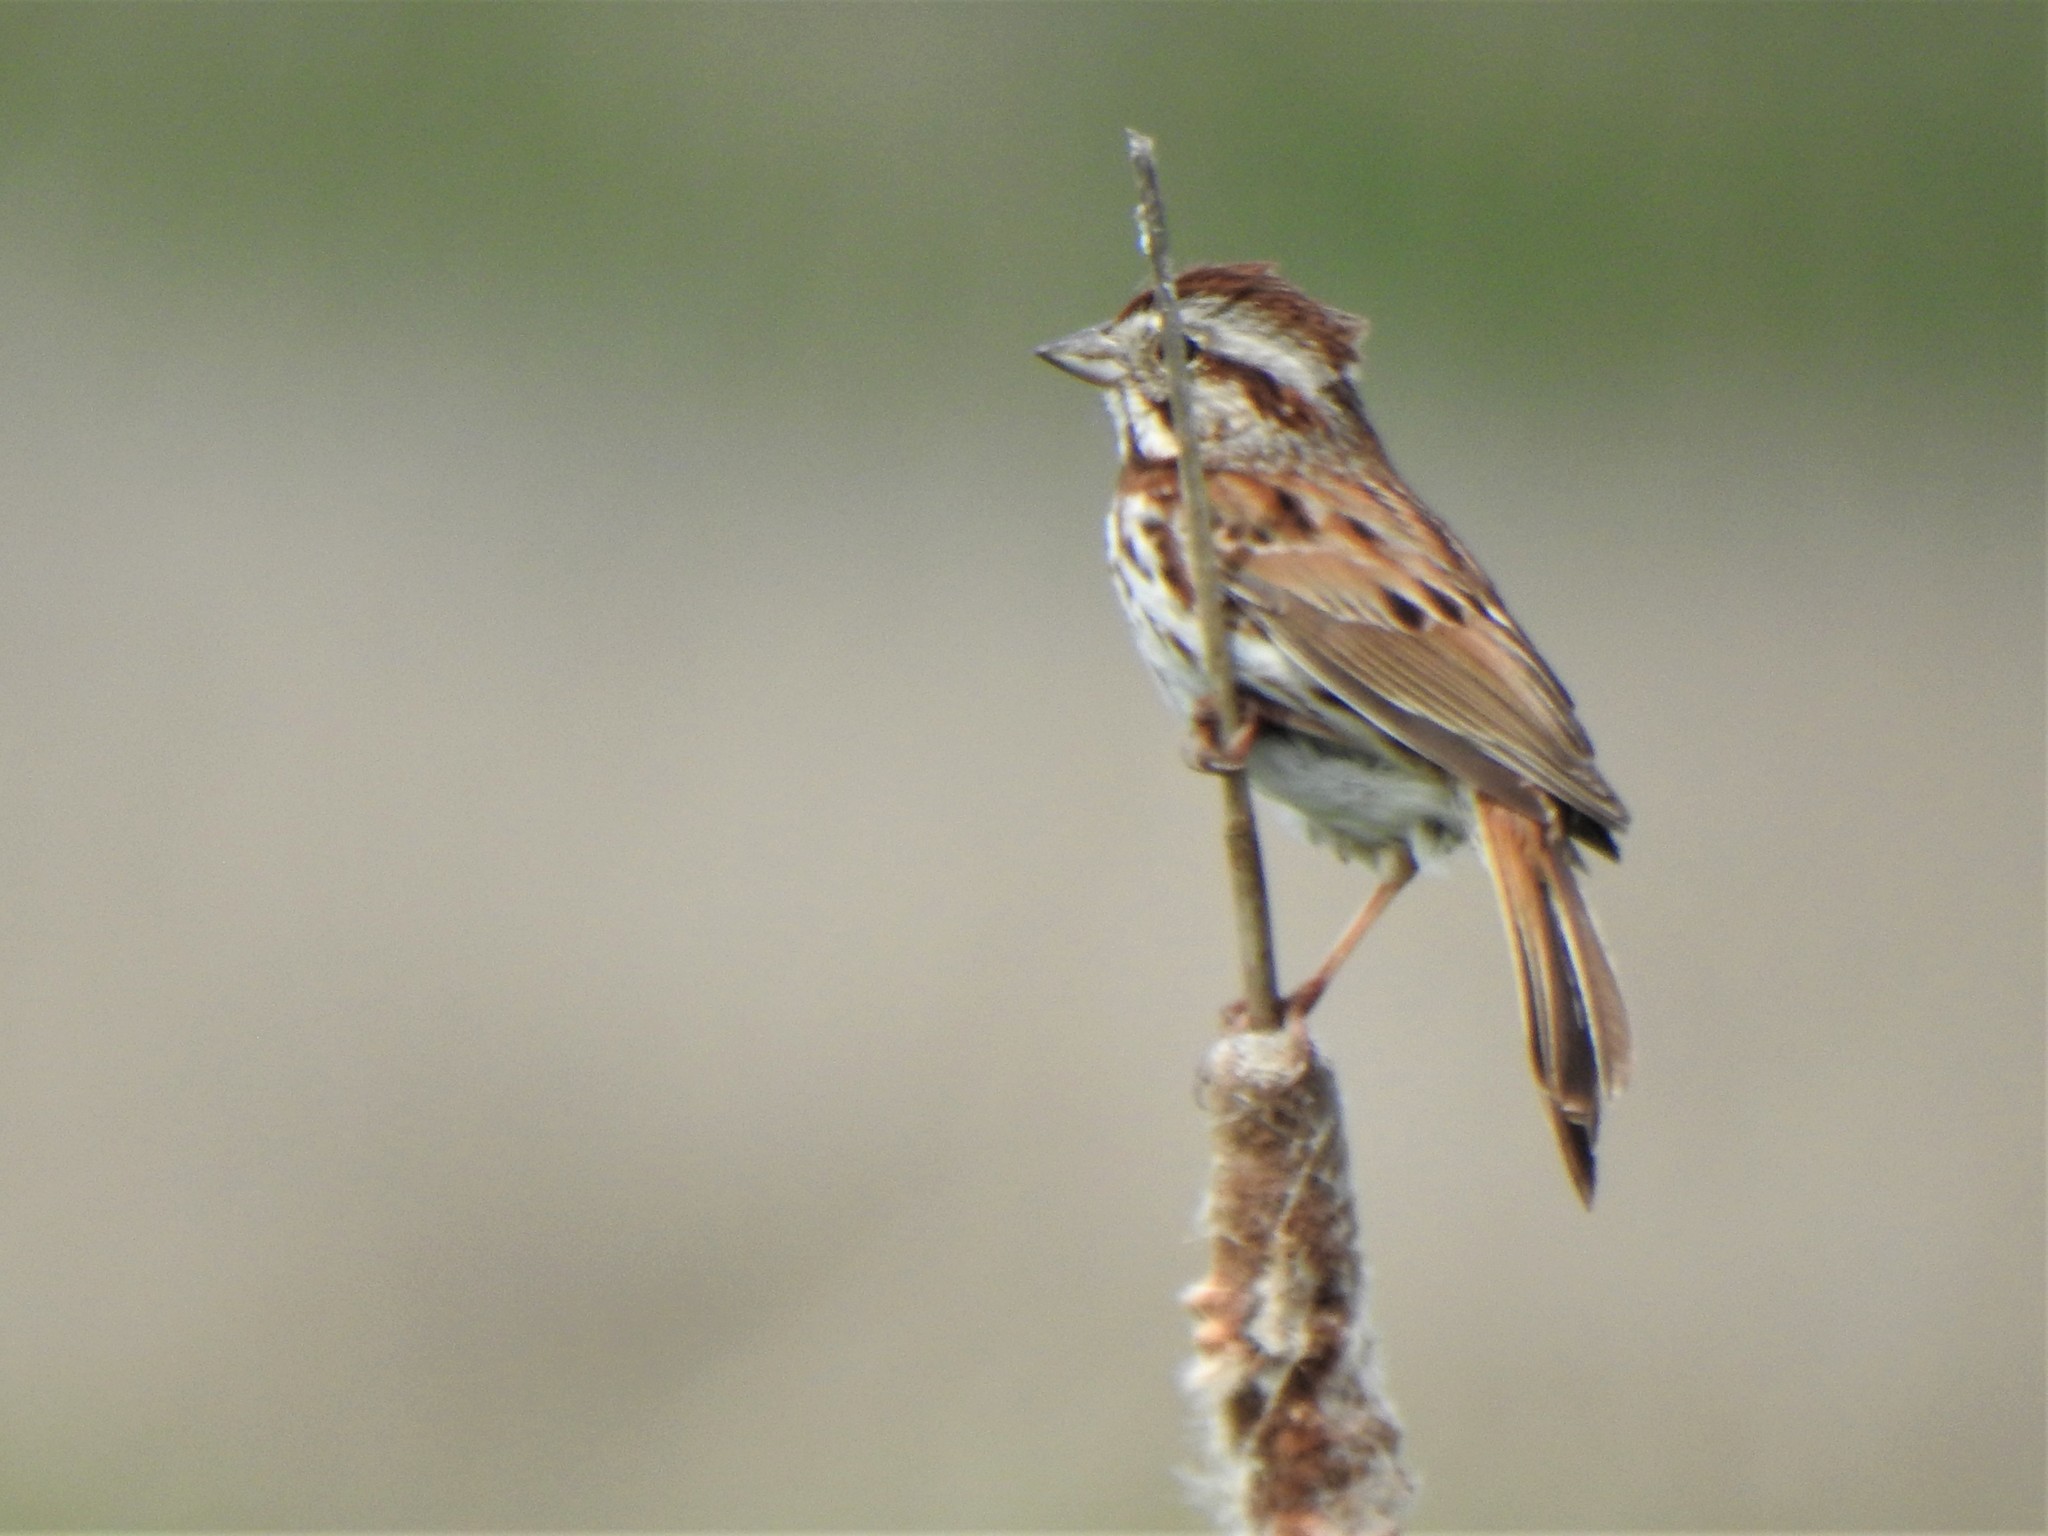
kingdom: Animalia
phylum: Chordata
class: Aves
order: Passeriformes
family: Passerellidae
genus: Melospiza
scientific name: Melospiza melodia
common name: Song sparrow
